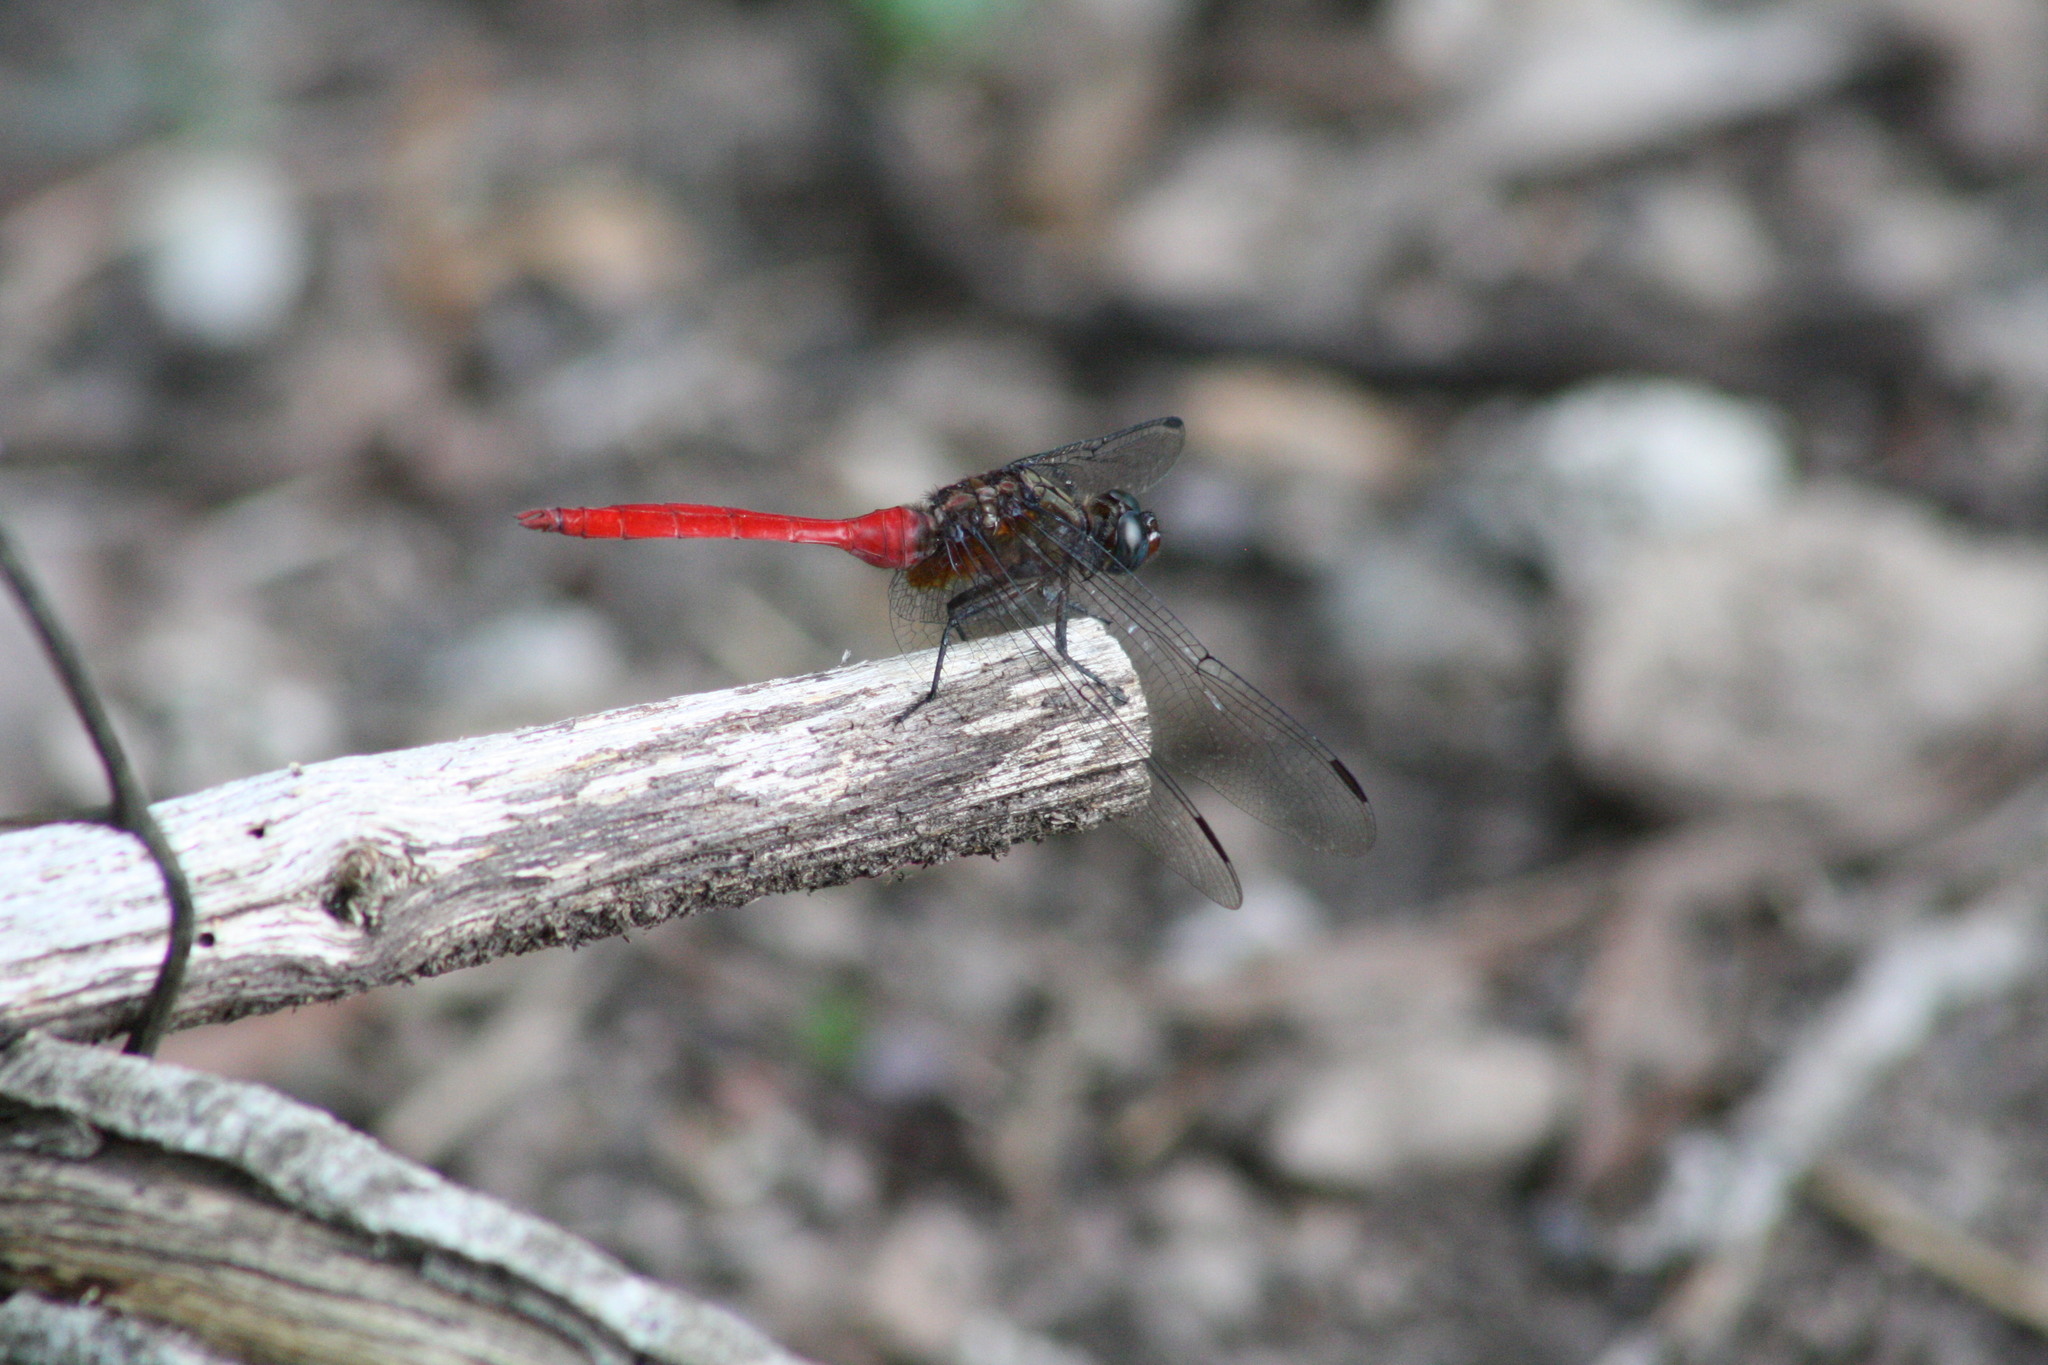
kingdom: Animalia
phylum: Arthropoda
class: Insecta
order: Odonata
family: Libellulidae
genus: Orthetrum
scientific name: Orthetrum villosovittatum
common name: Firery skimmer
